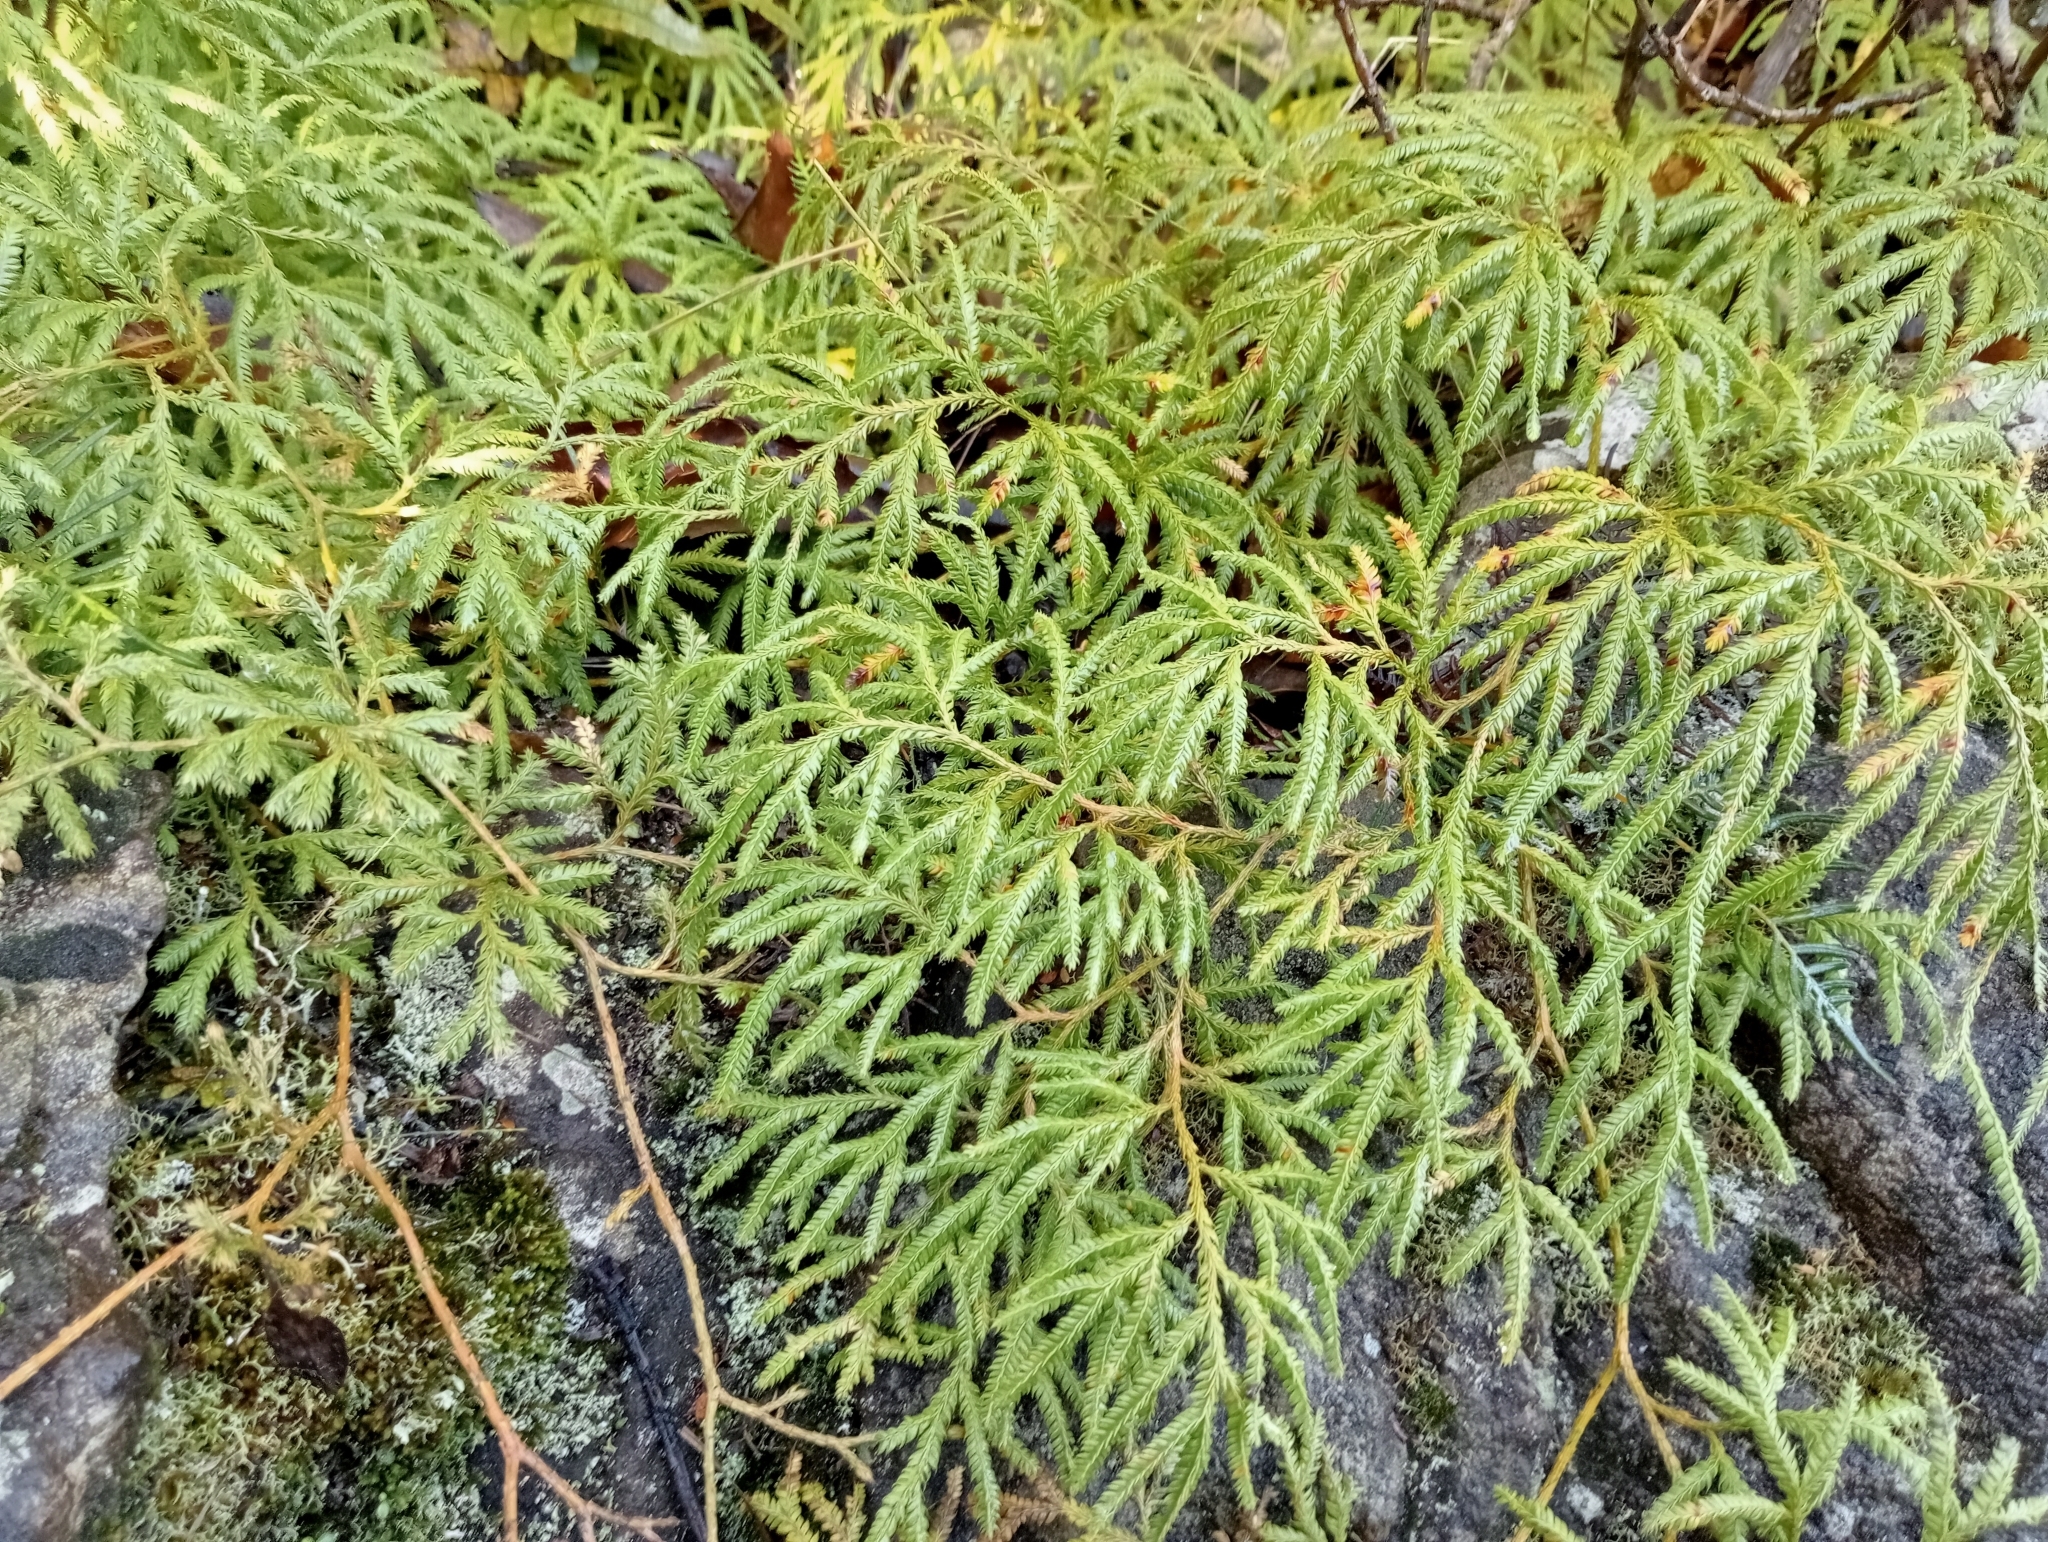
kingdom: Plantae
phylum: Tracheophyta
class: Lycopodiopsida
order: Lycopodiales
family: Lycopodiaceae
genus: Lycopodium
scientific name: Lycopodium volubile
